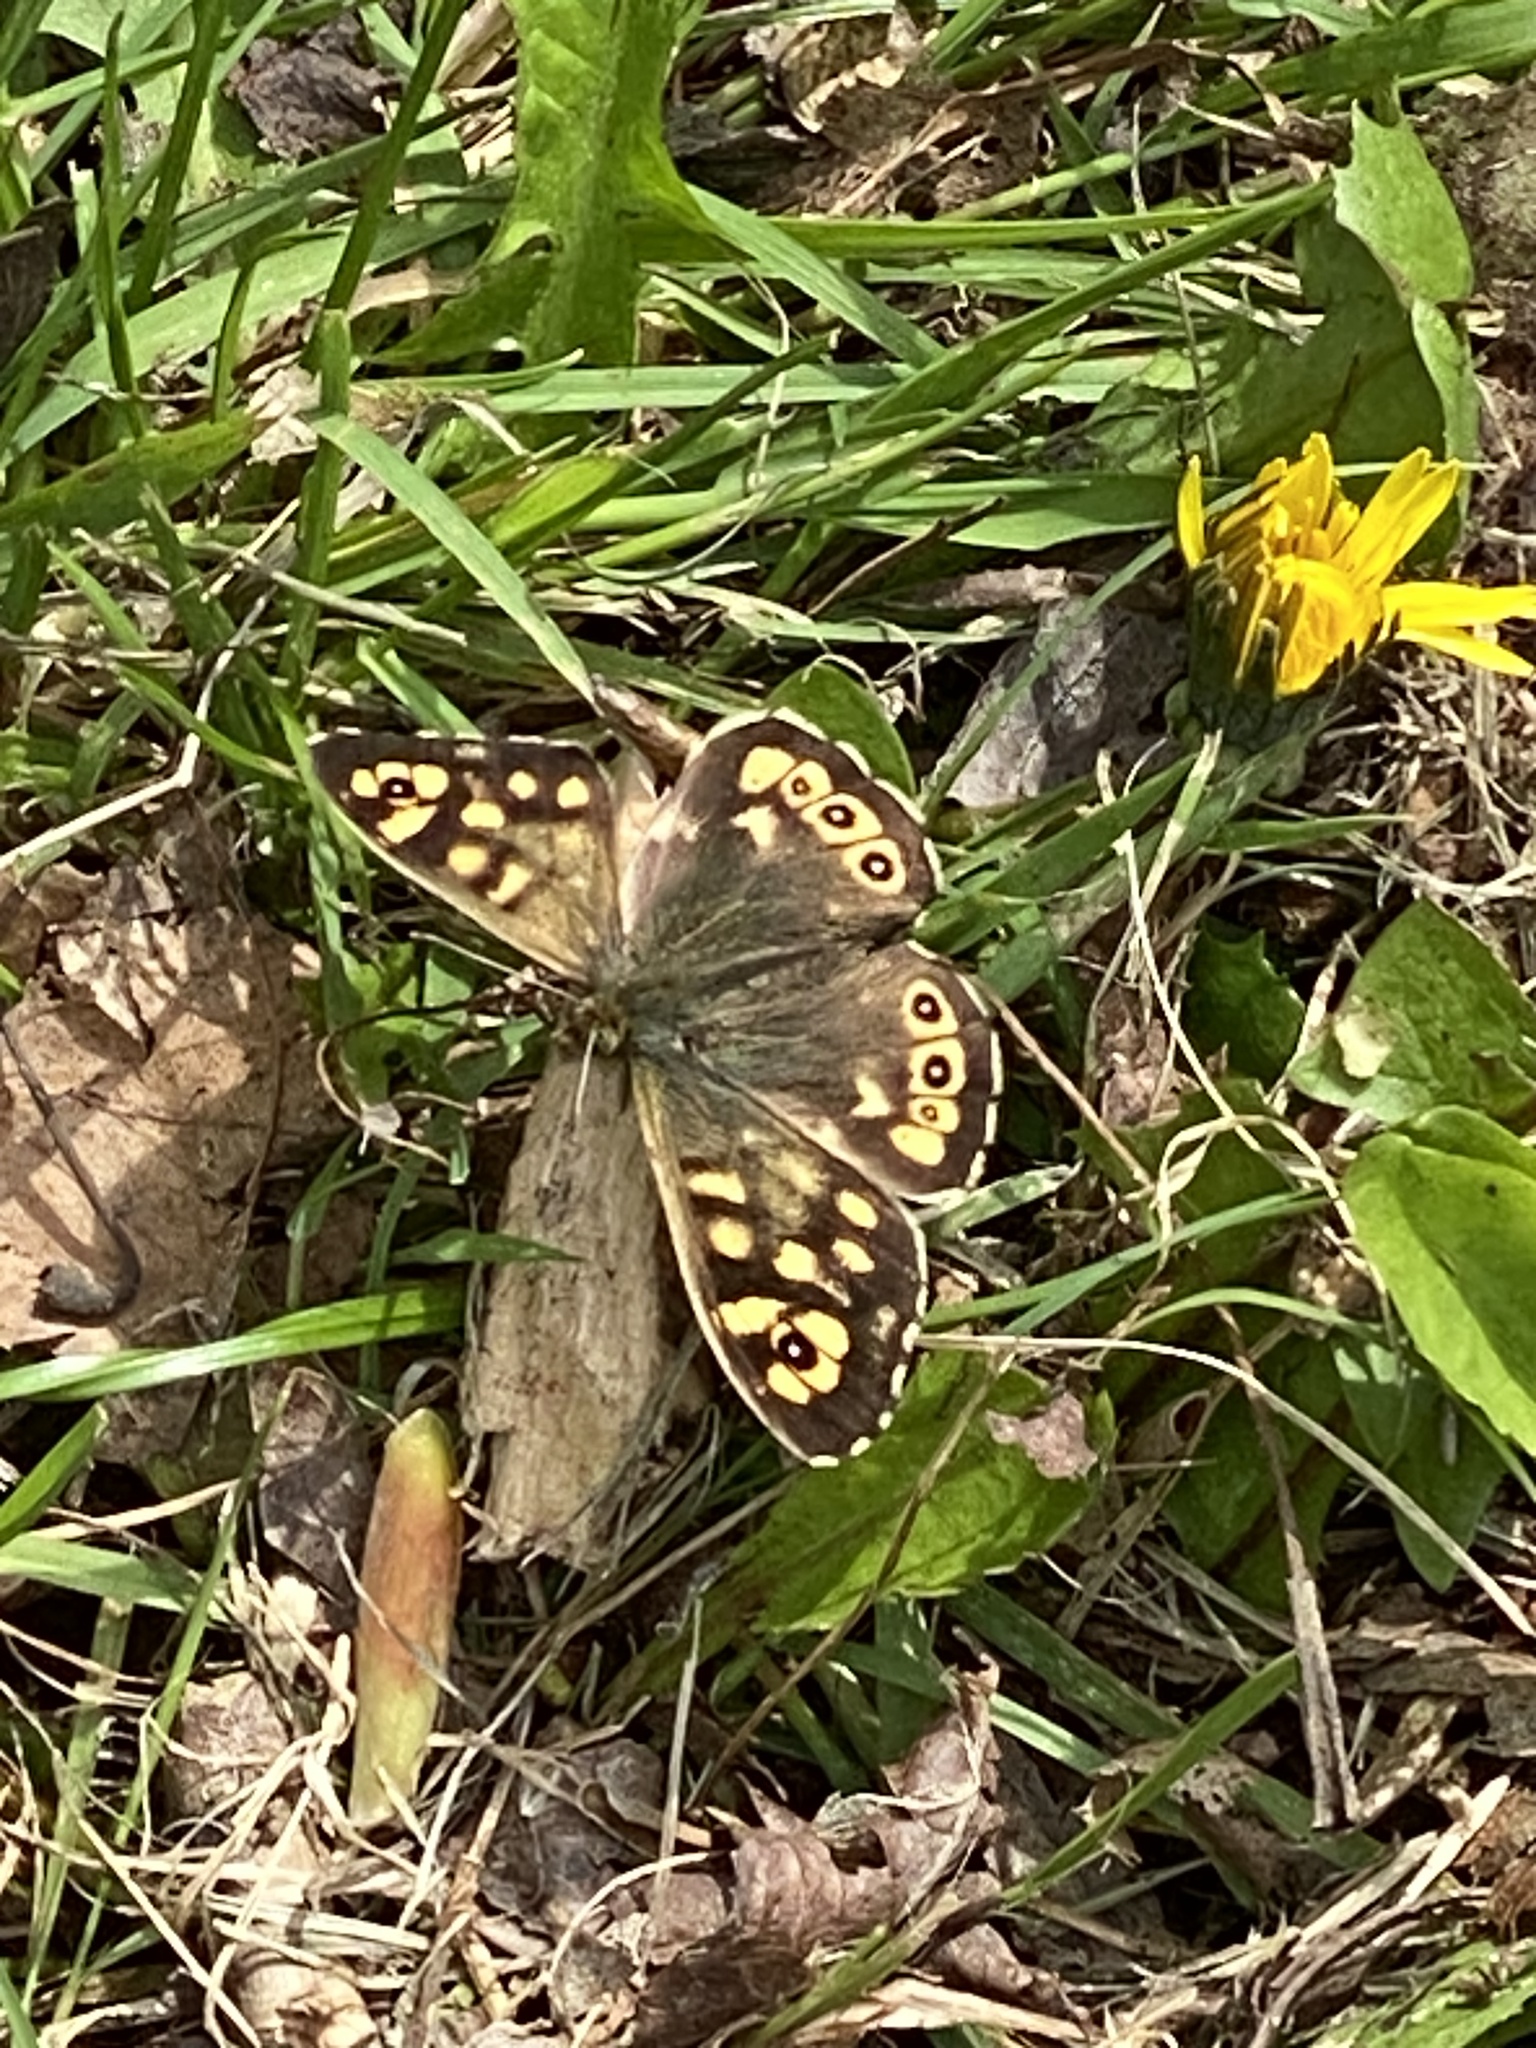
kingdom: Animalia
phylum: Arthropoda
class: Insecta
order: Lepidoptera
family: Nymphalidae
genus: Pararge
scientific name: Pararge aegeria
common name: Speckled wood
